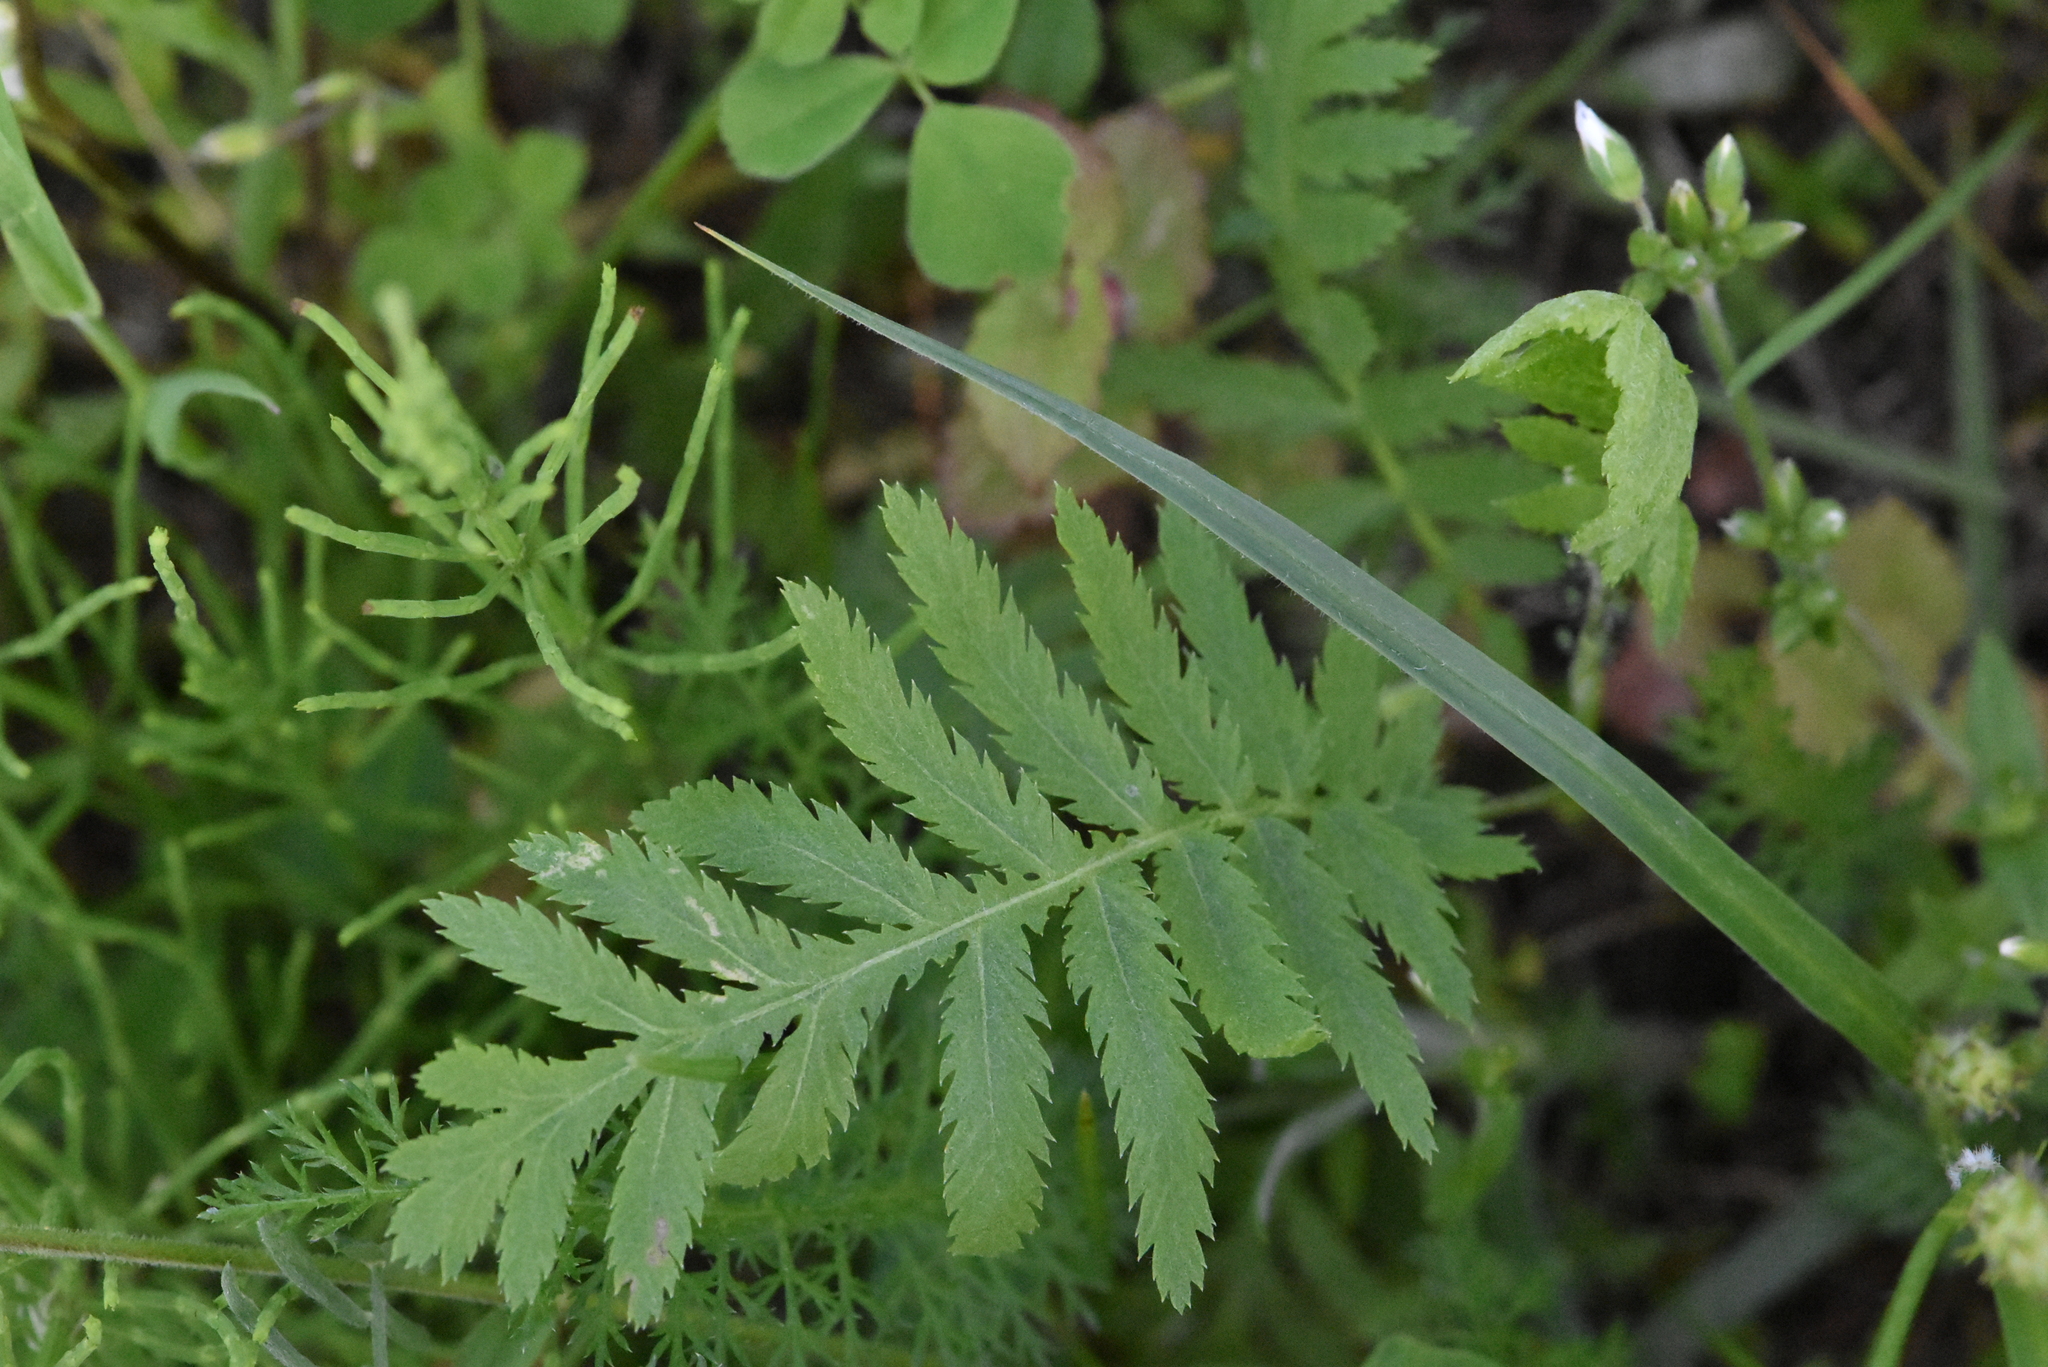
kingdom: Plantae
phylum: Tracheophyta
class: Magnoliopsida
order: Asterales
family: Asteraceae
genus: Tanacetum
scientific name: Tanacetum vulgare
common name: Common tansy
